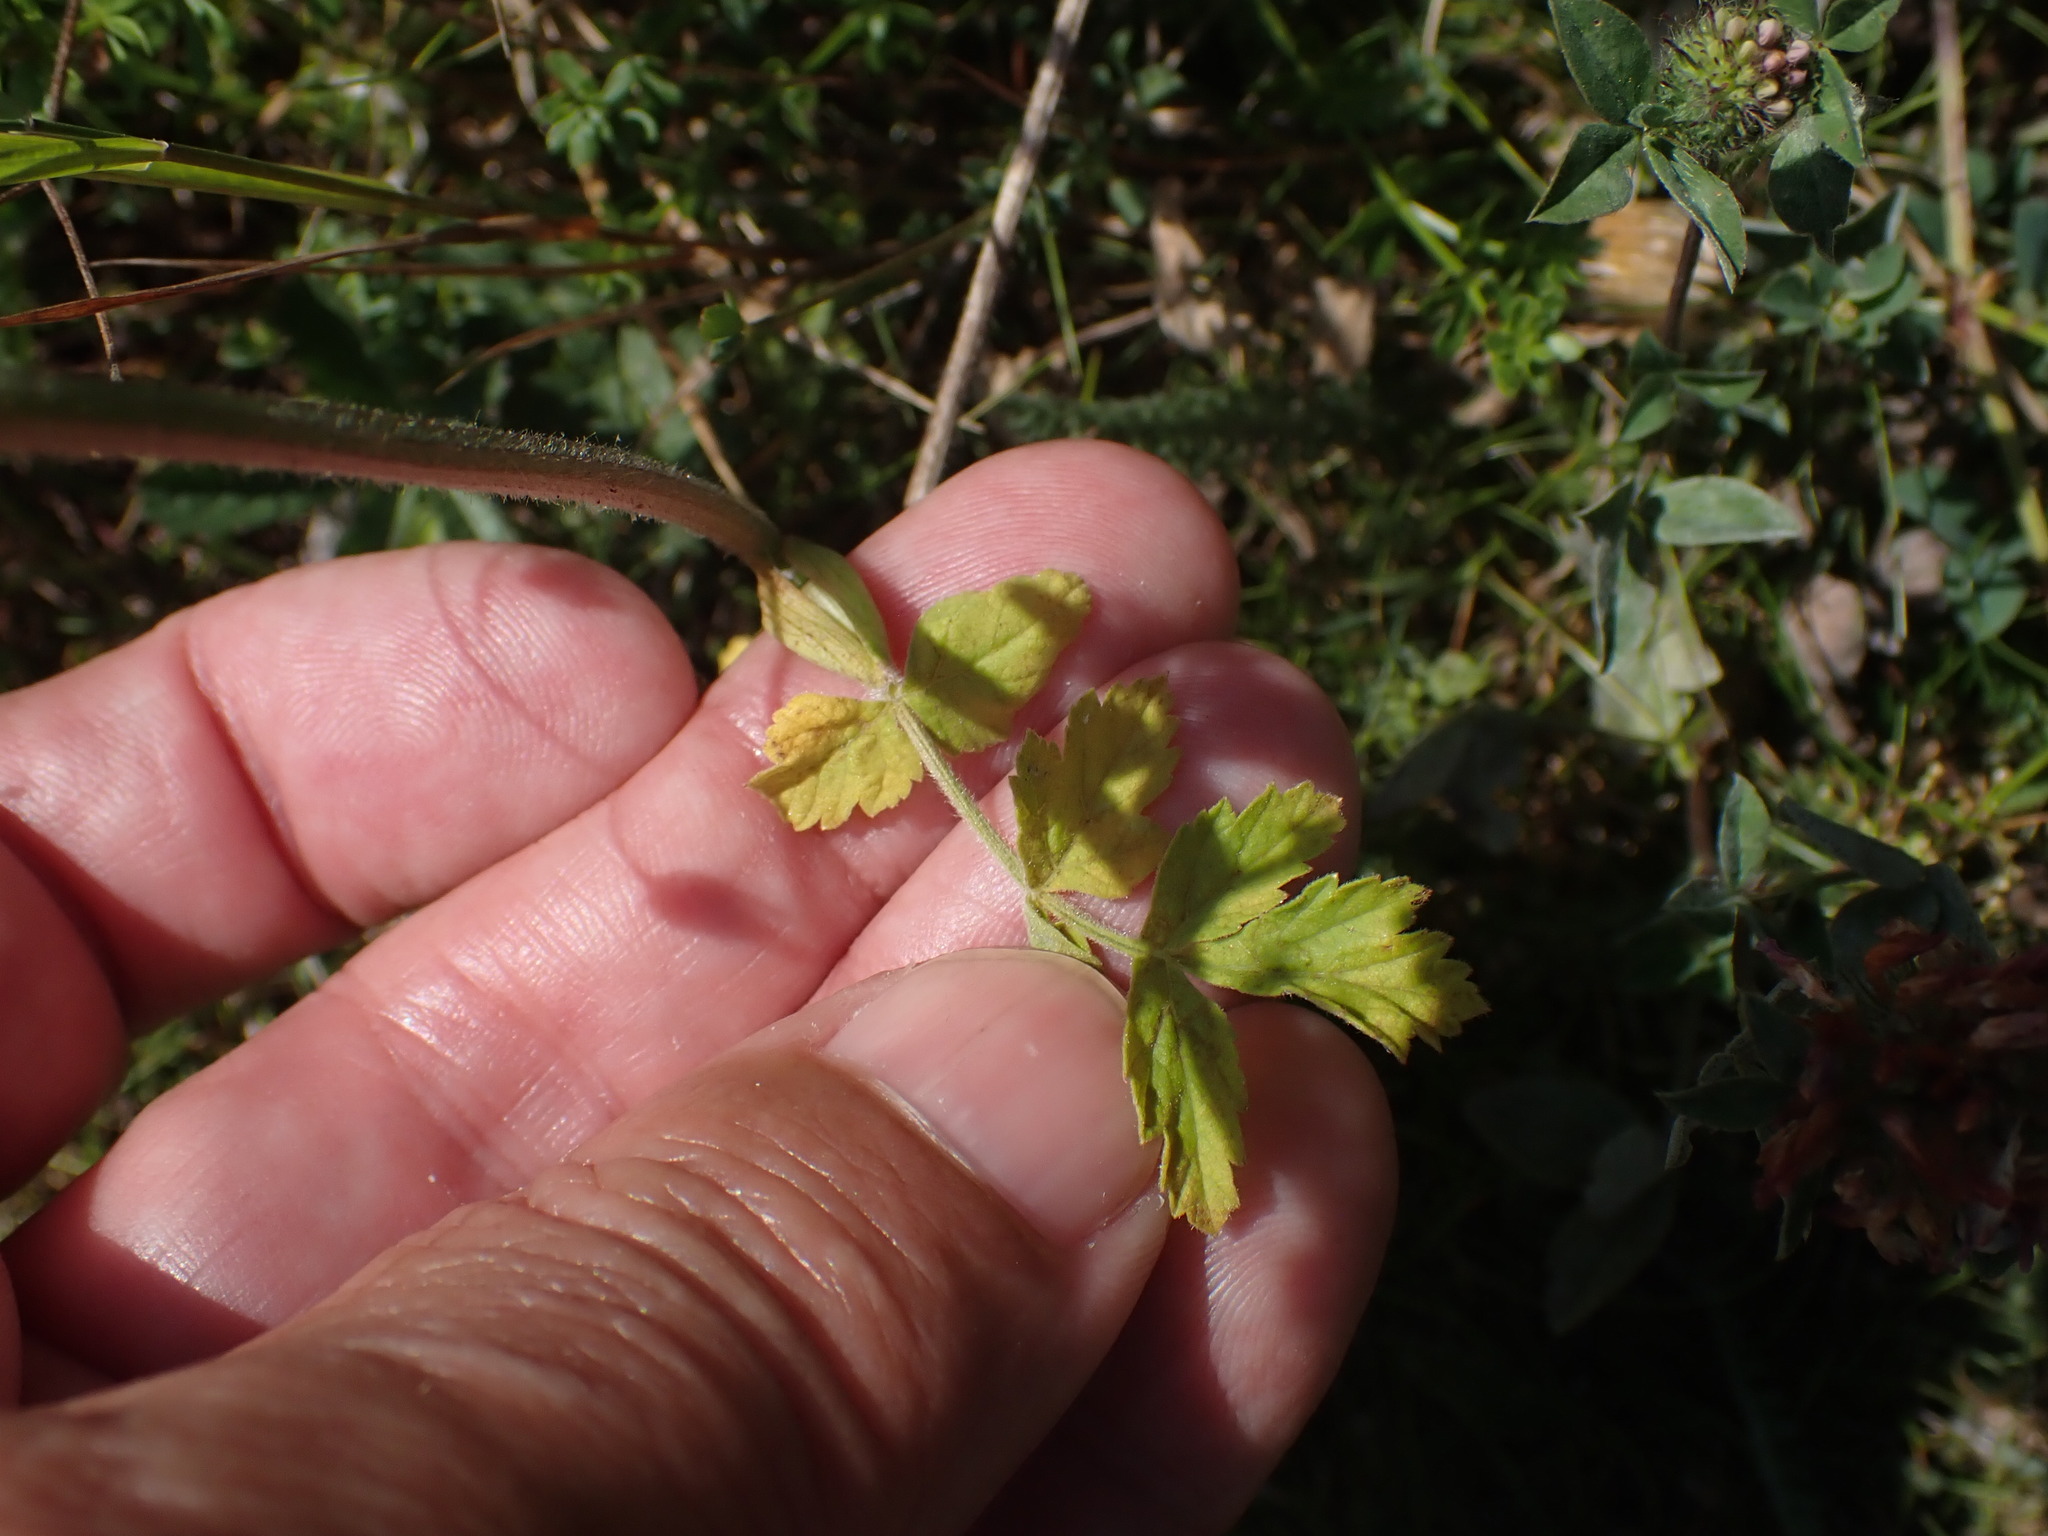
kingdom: Plantae
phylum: Tracheophyta
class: Magnoliopsida
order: Apiales
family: Apiaceae
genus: Pastinaca
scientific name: Pastinaca sativa
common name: Wild parsnip
